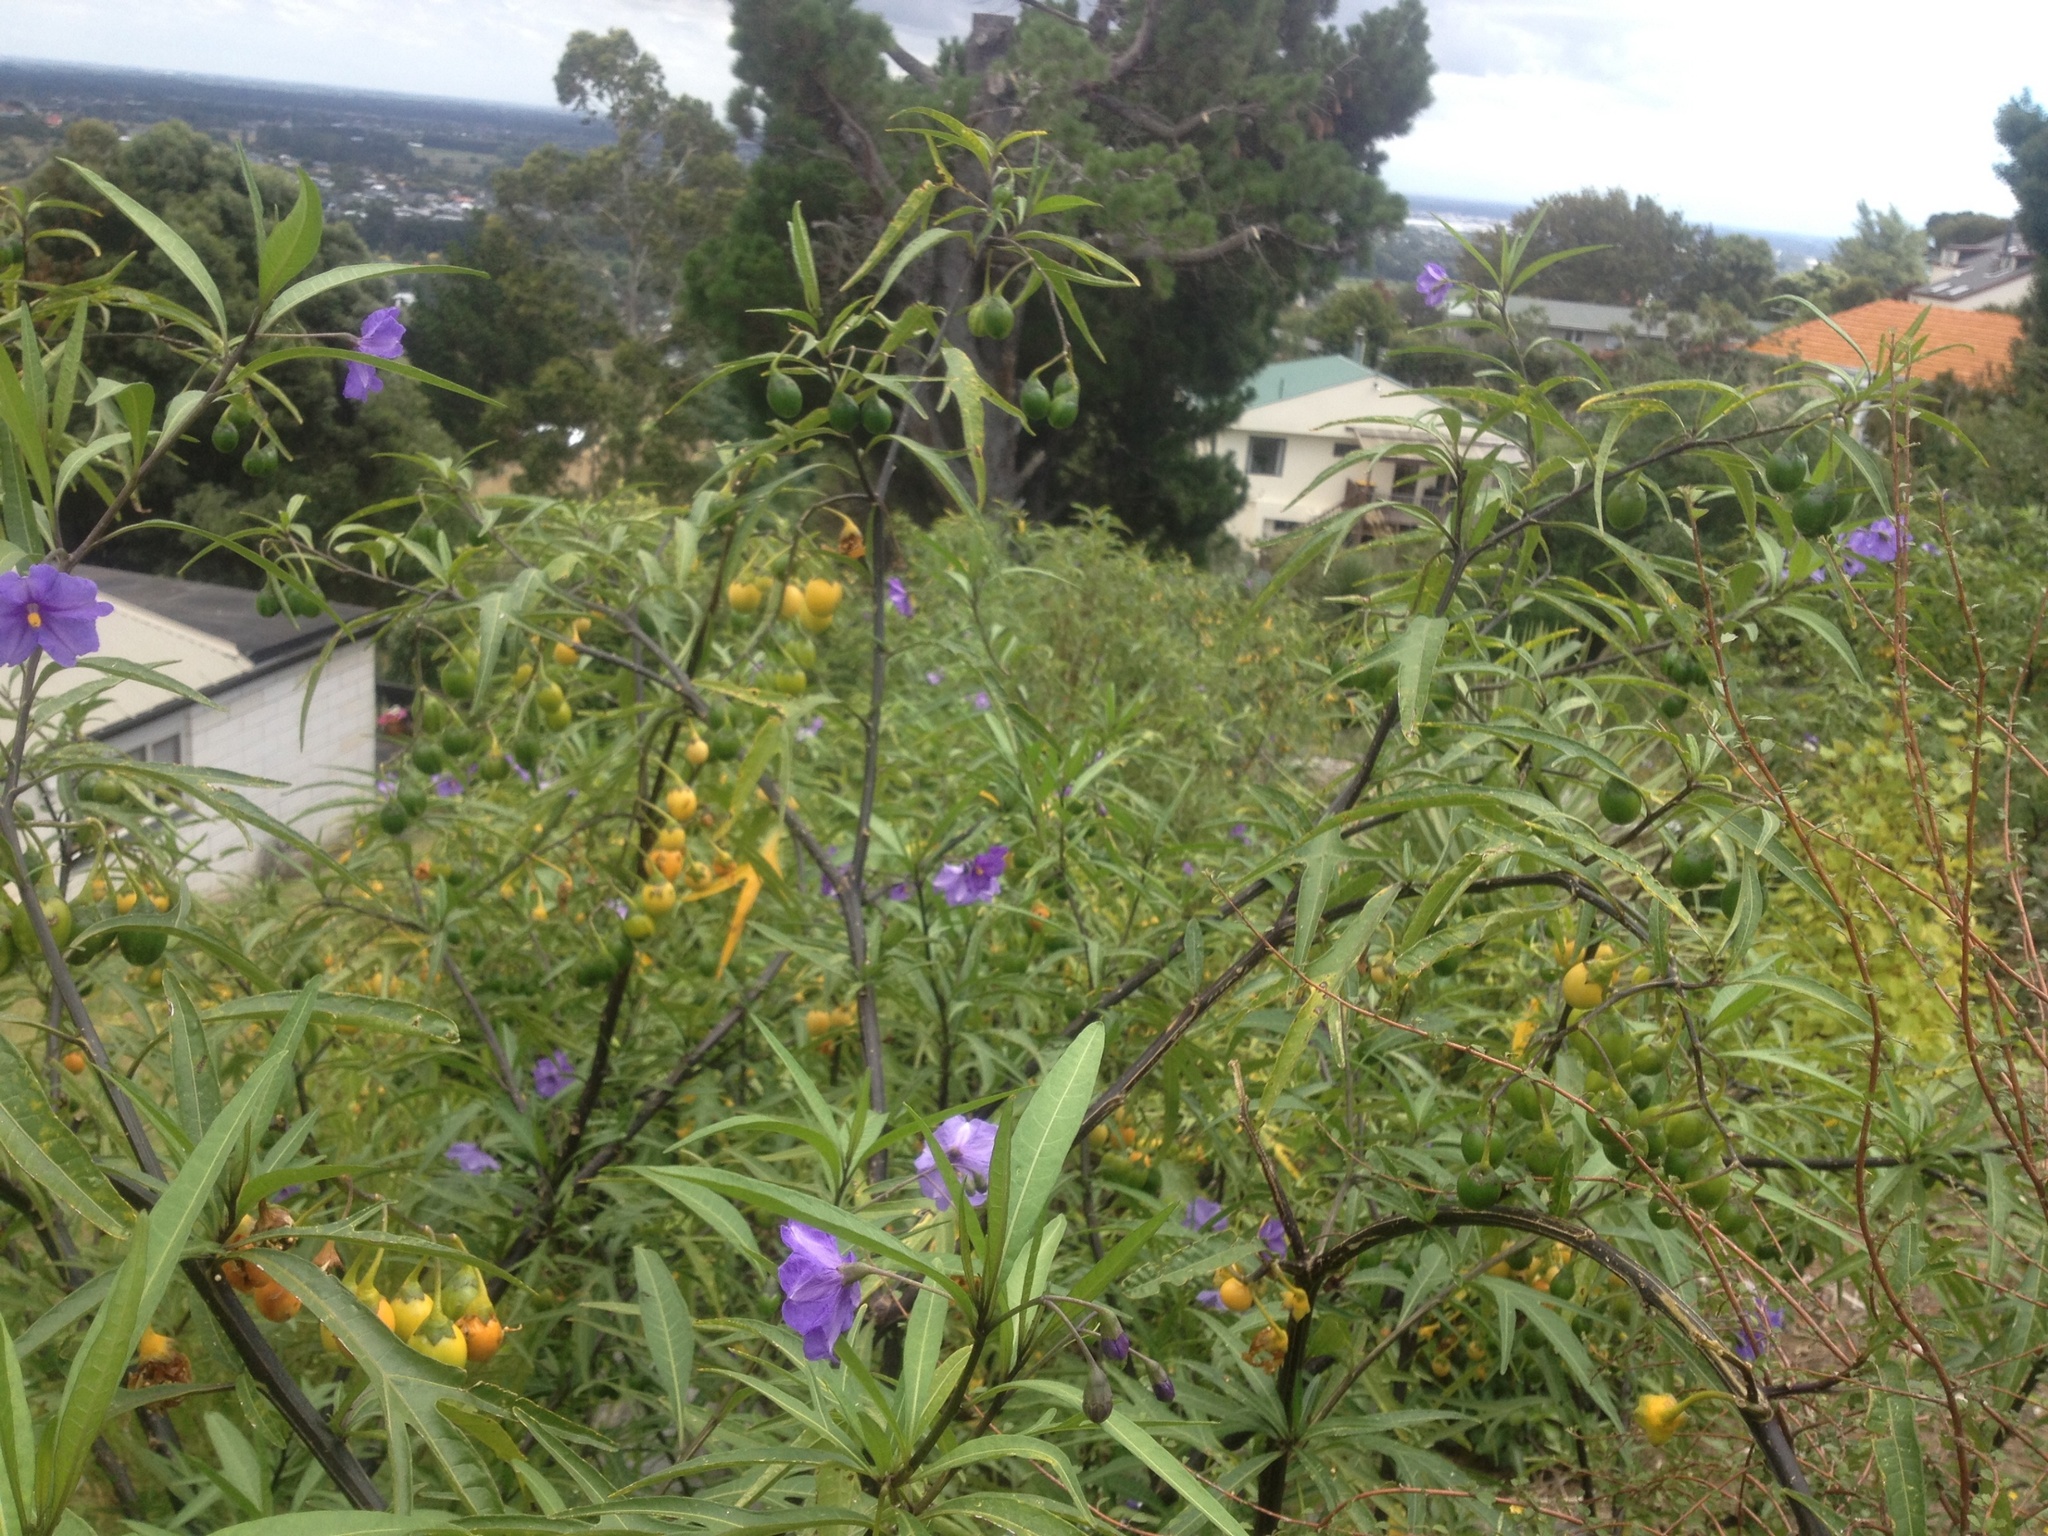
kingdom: Plantae
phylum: Tracheophyta
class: Magnoliopsida
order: Solanales
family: Solanaceae
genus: Solanum
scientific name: Solanum laciniatum
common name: Kangaroo-apple
